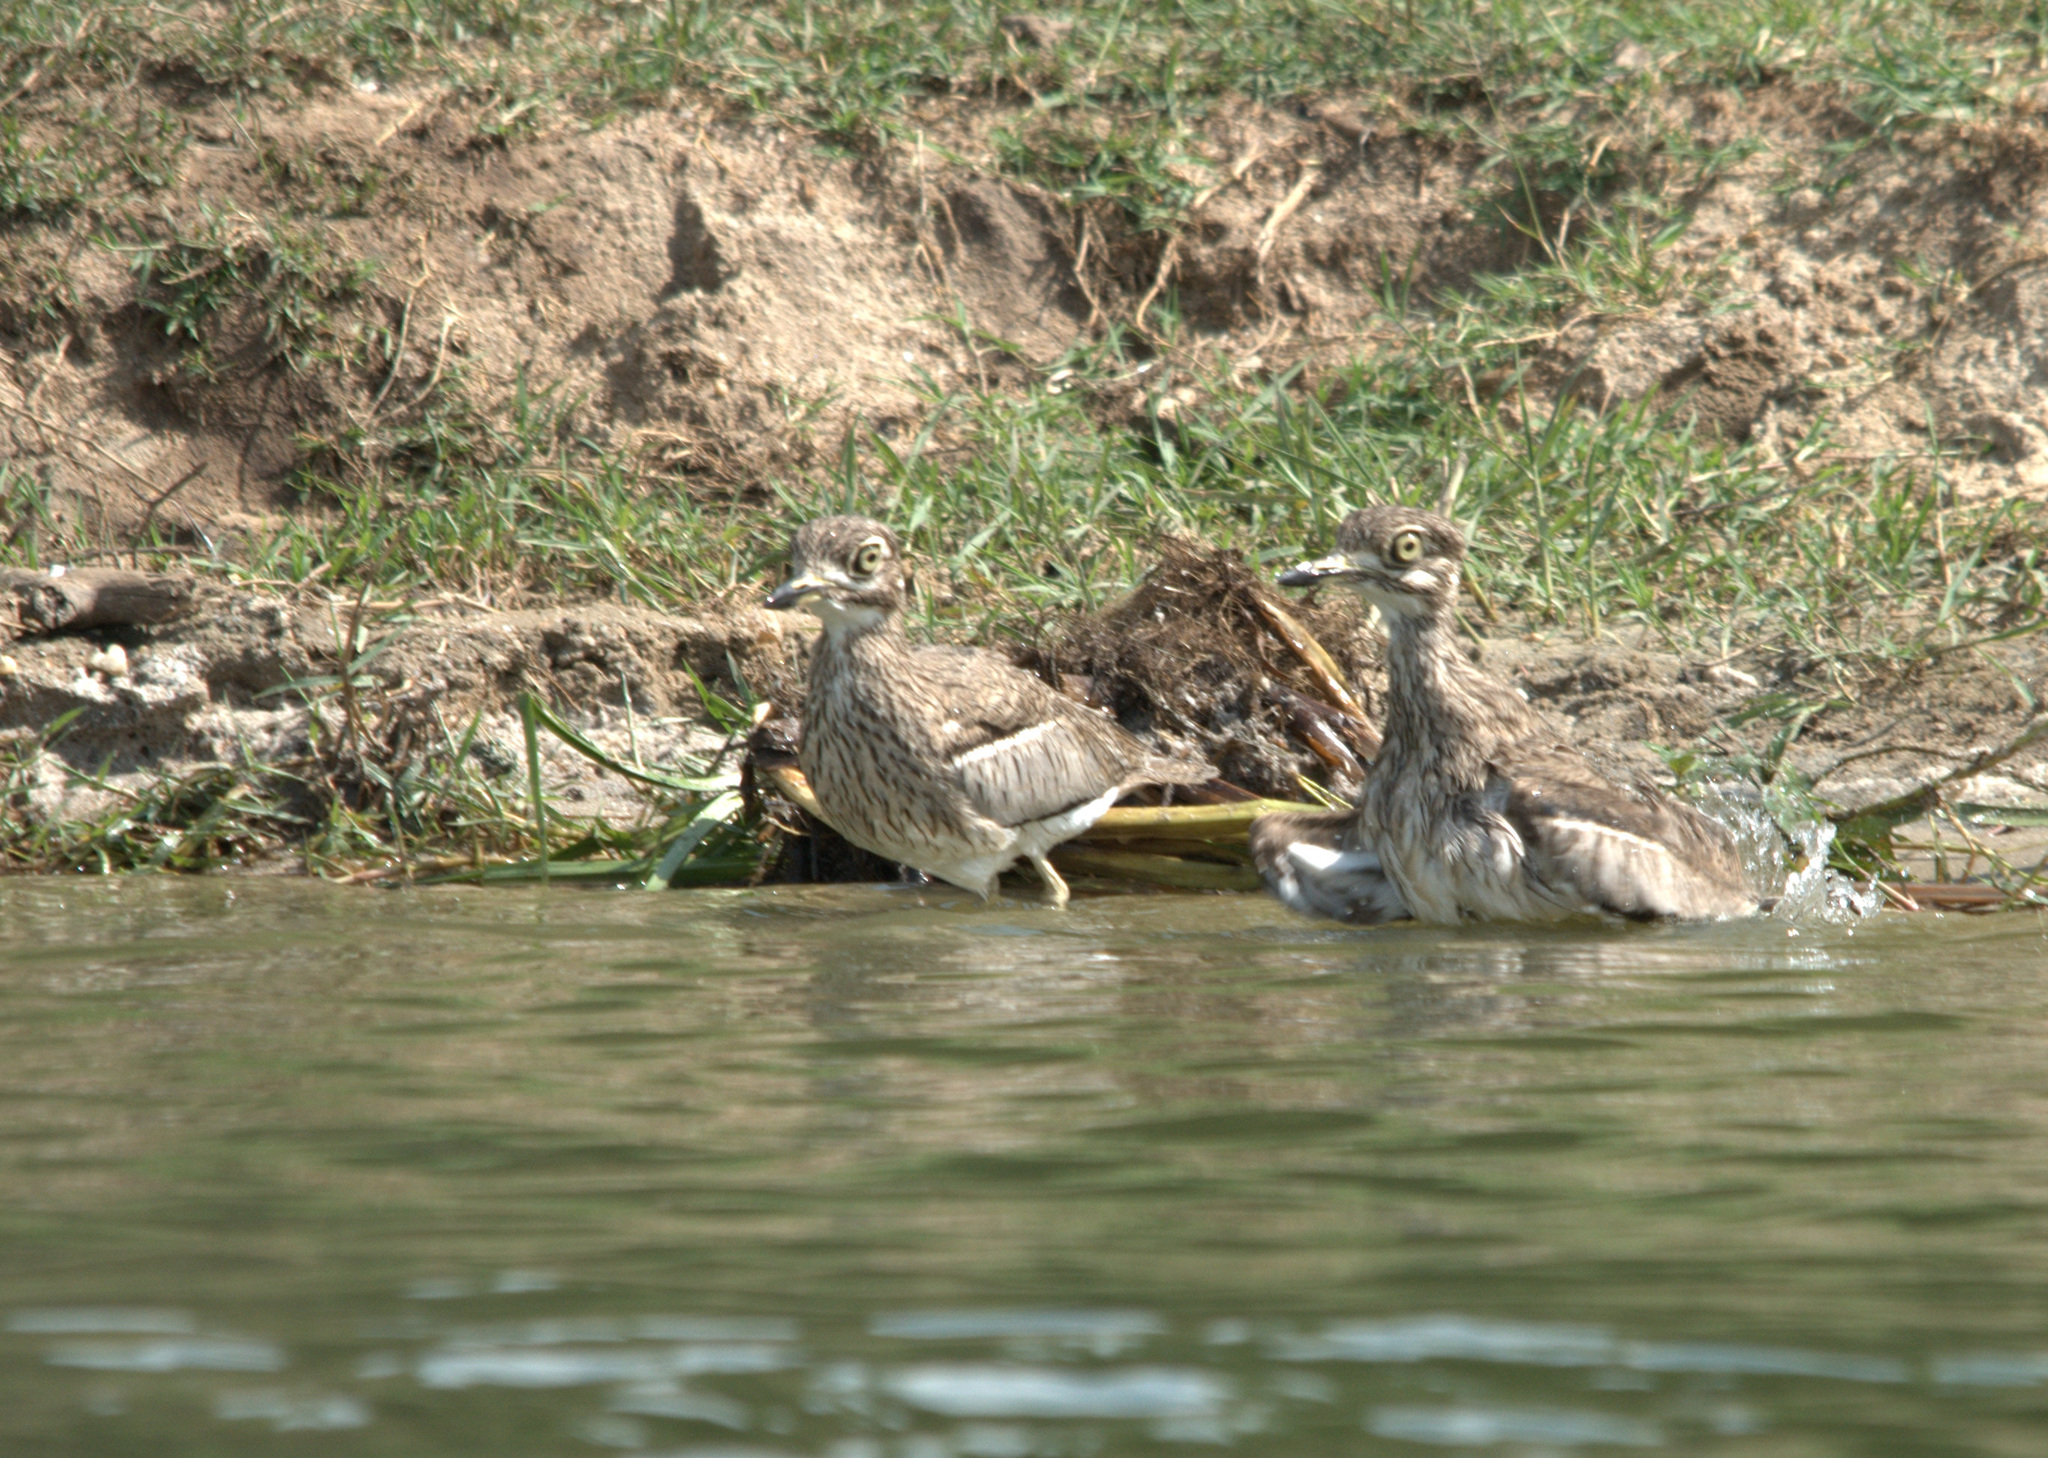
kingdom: Animalia
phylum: Chordata
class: Aves
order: Charadriiformes
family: Burhinidae
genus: Burhinus
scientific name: Burhinus vermiculatus
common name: Water thick-knee
